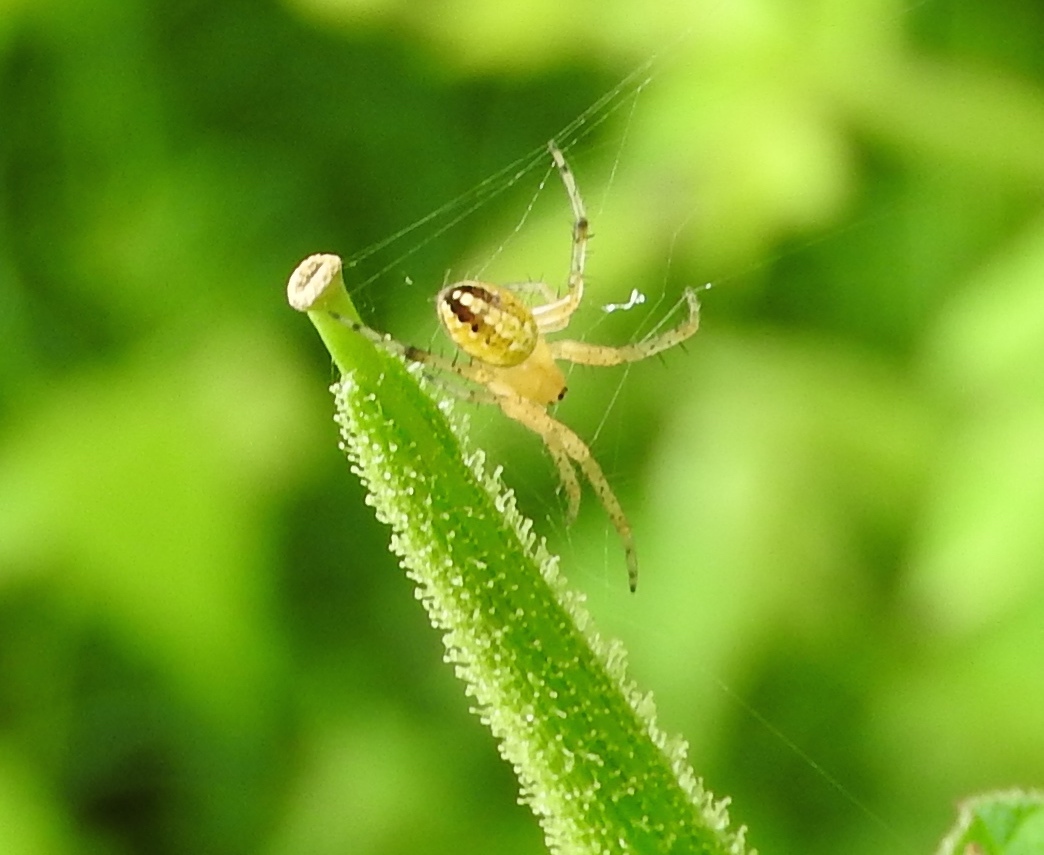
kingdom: Animalia
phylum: Arthropoda
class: Arachnida
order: Araneae
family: Araneidae
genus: Neoscona
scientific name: Neoscona
